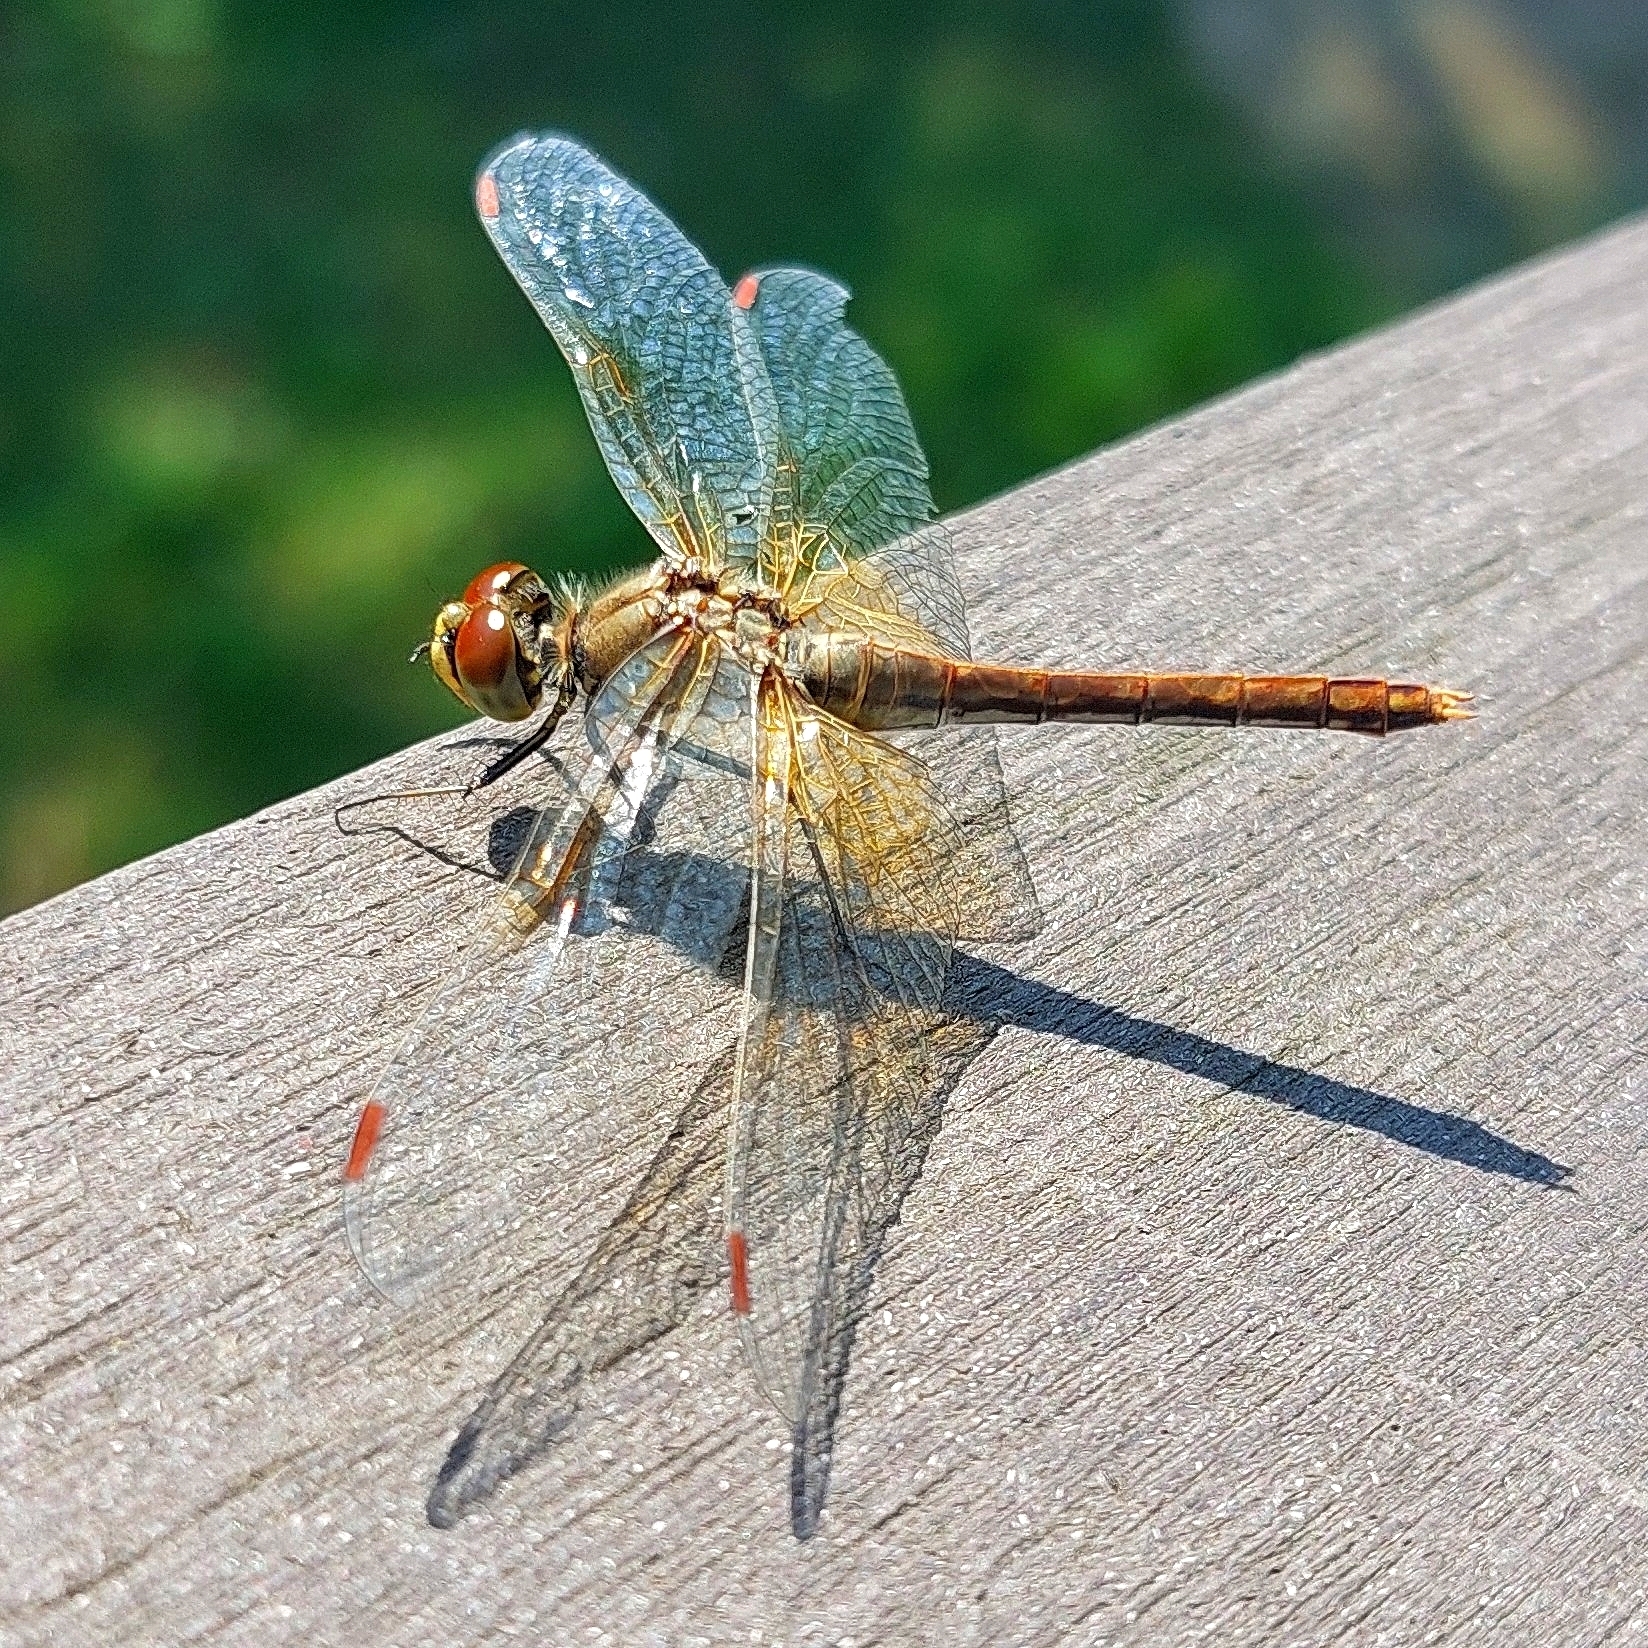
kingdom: Animalia
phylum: Arthropoda
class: Insecta
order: Odonata
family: Libellulidae
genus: Sympetrum
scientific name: Sympetrum flaveolum
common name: Yellow-winged darter
